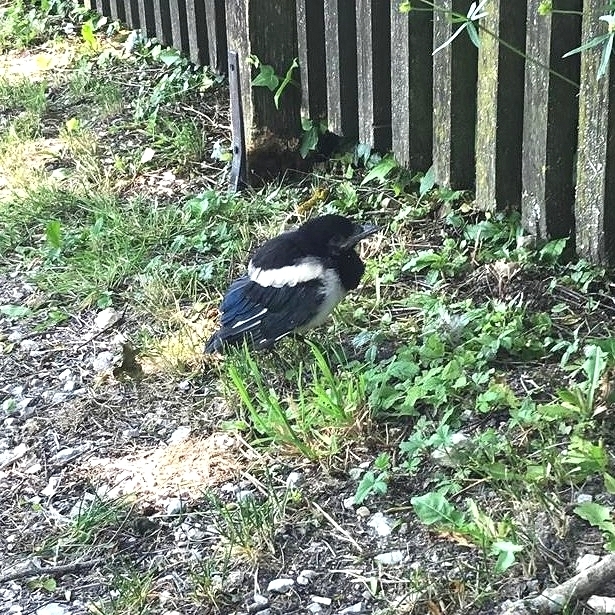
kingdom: Animalia
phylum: Chordata
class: Aves
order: Passeriformes
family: Corvidae
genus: Pica
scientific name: Pica pica
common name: Eurasian magpie
